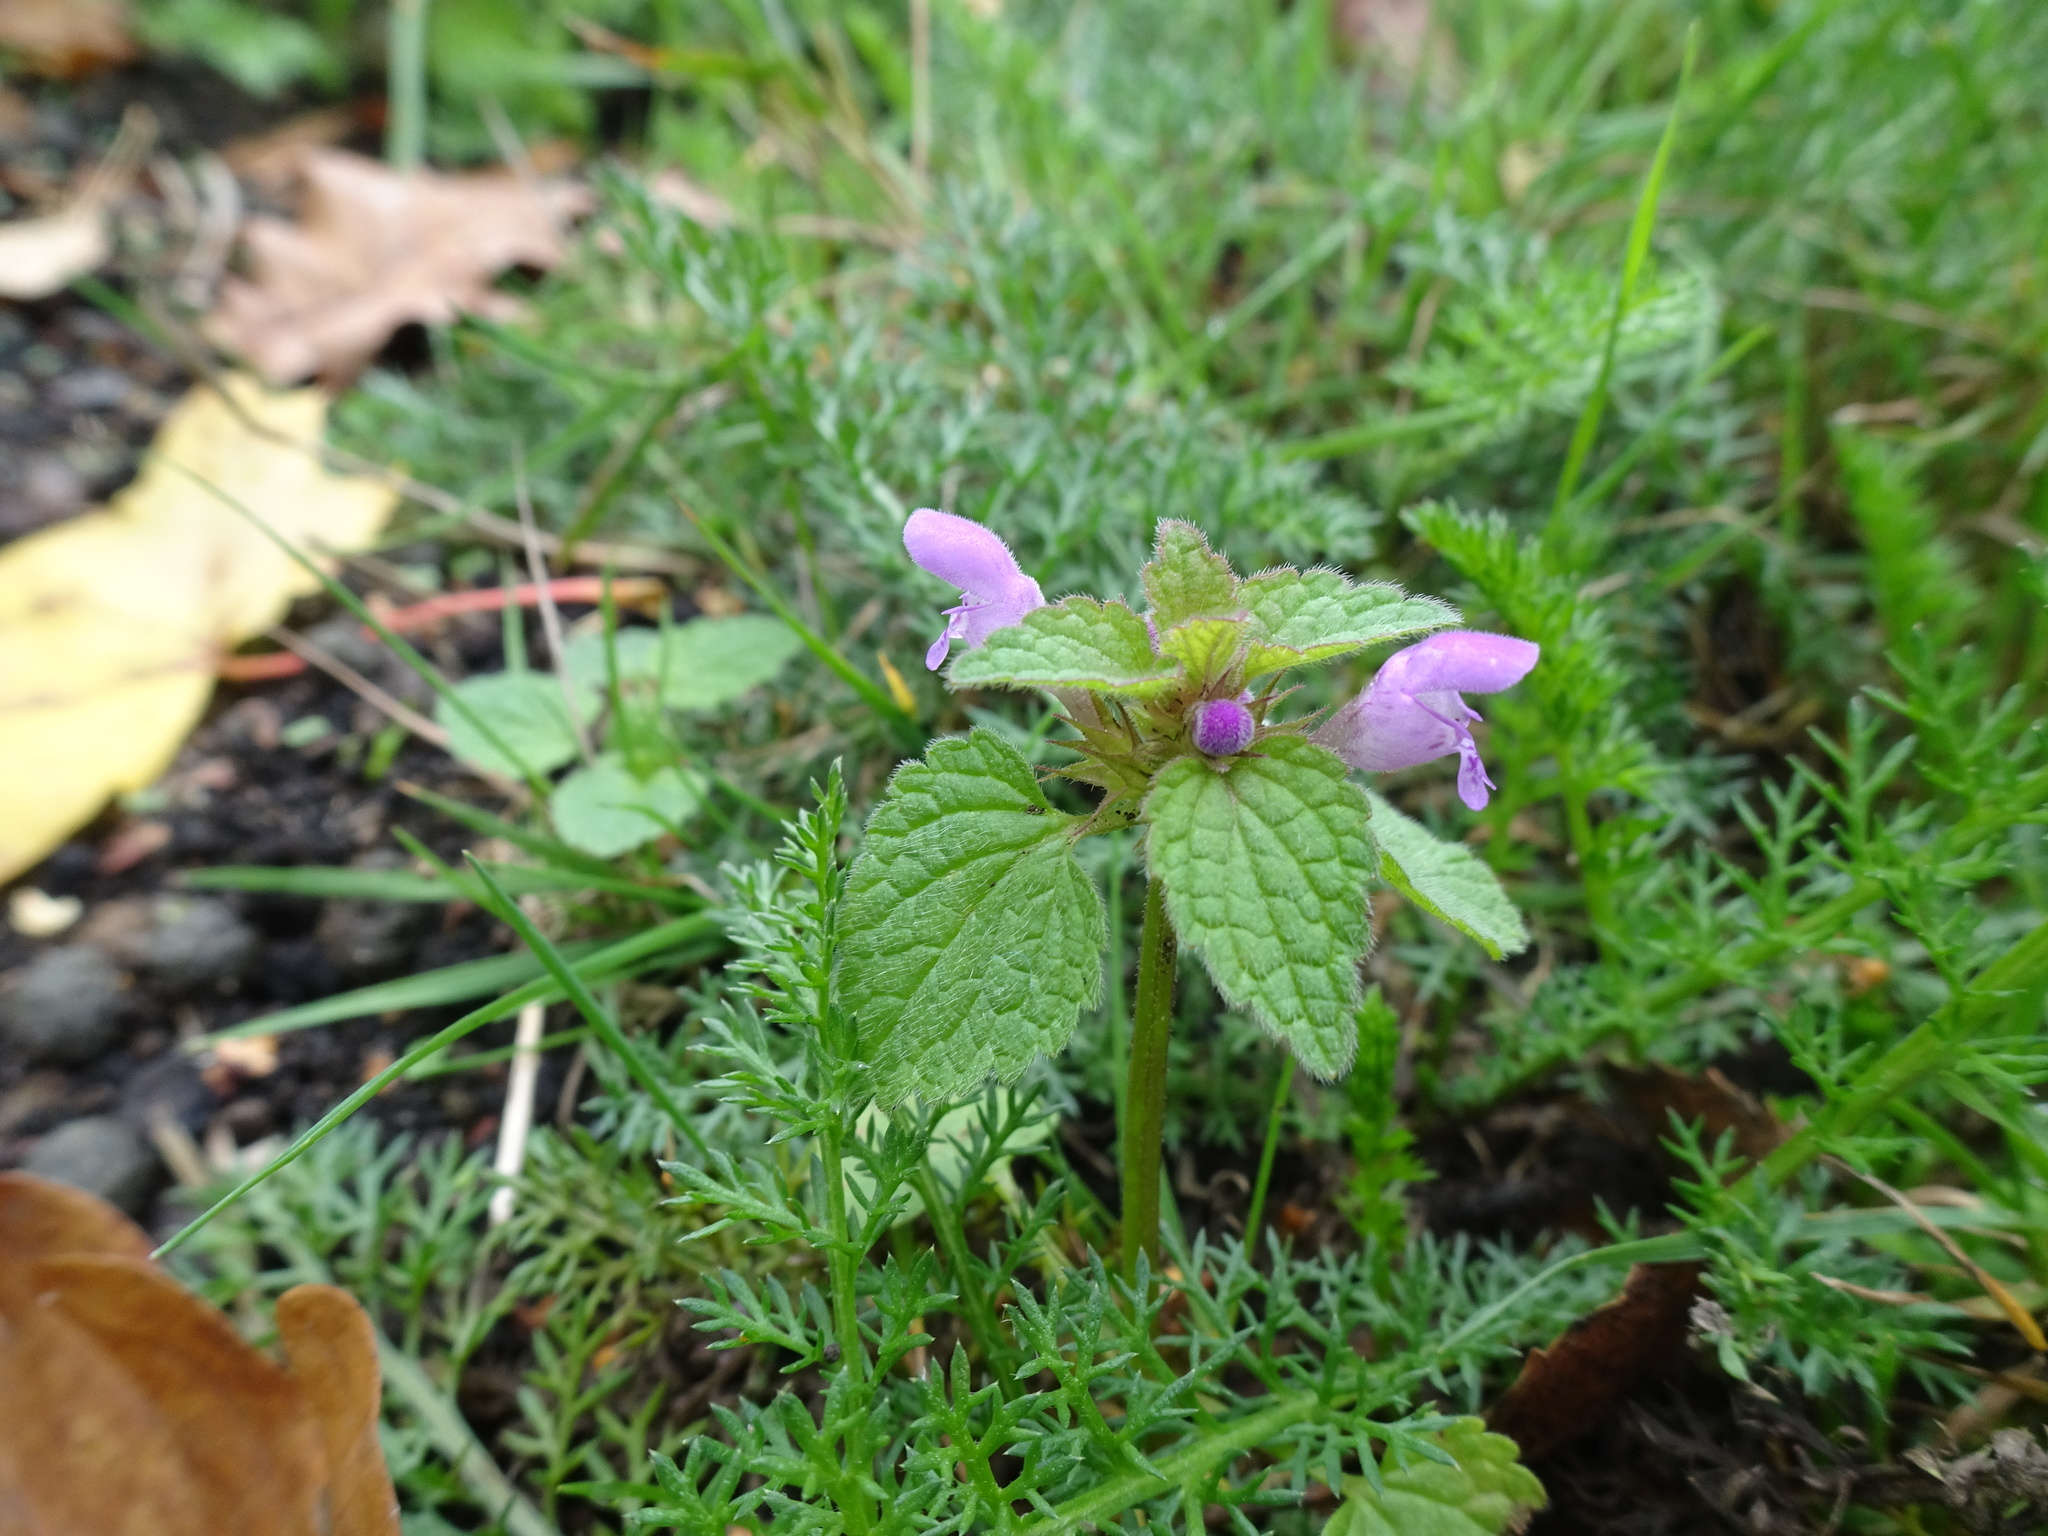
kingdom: Plantae
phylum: Tracheophyta
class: Magnoliopsida
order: Lamiales
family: Lamiaceae
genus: Lamium
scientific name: Lamium purpureum
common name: Red dead-nettle
